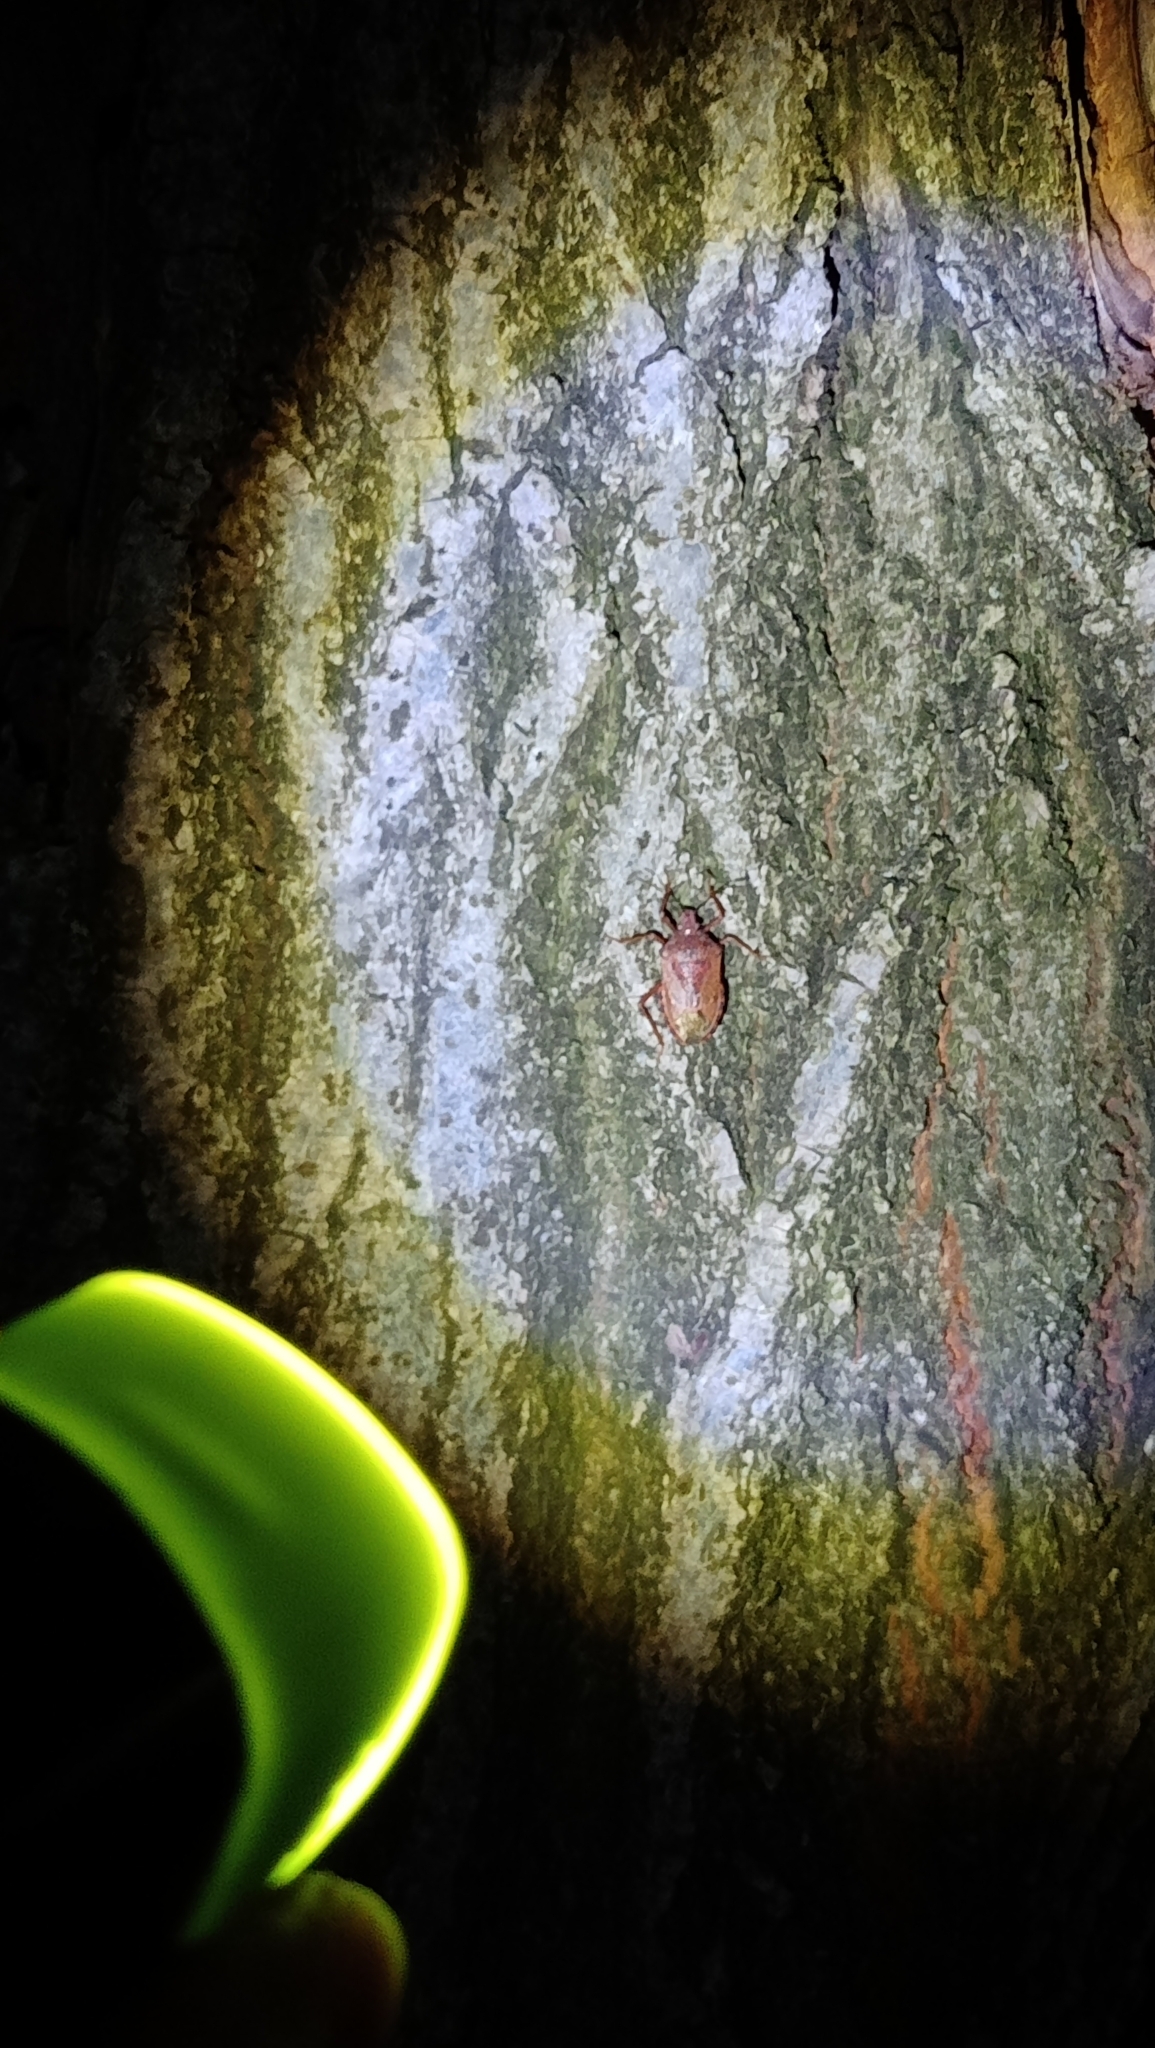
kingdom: Animalia
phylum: Arthropoda
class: Insecta
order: Hemiptera
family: Pentatomidae
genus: Apodiphus
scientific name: Apodiphus
